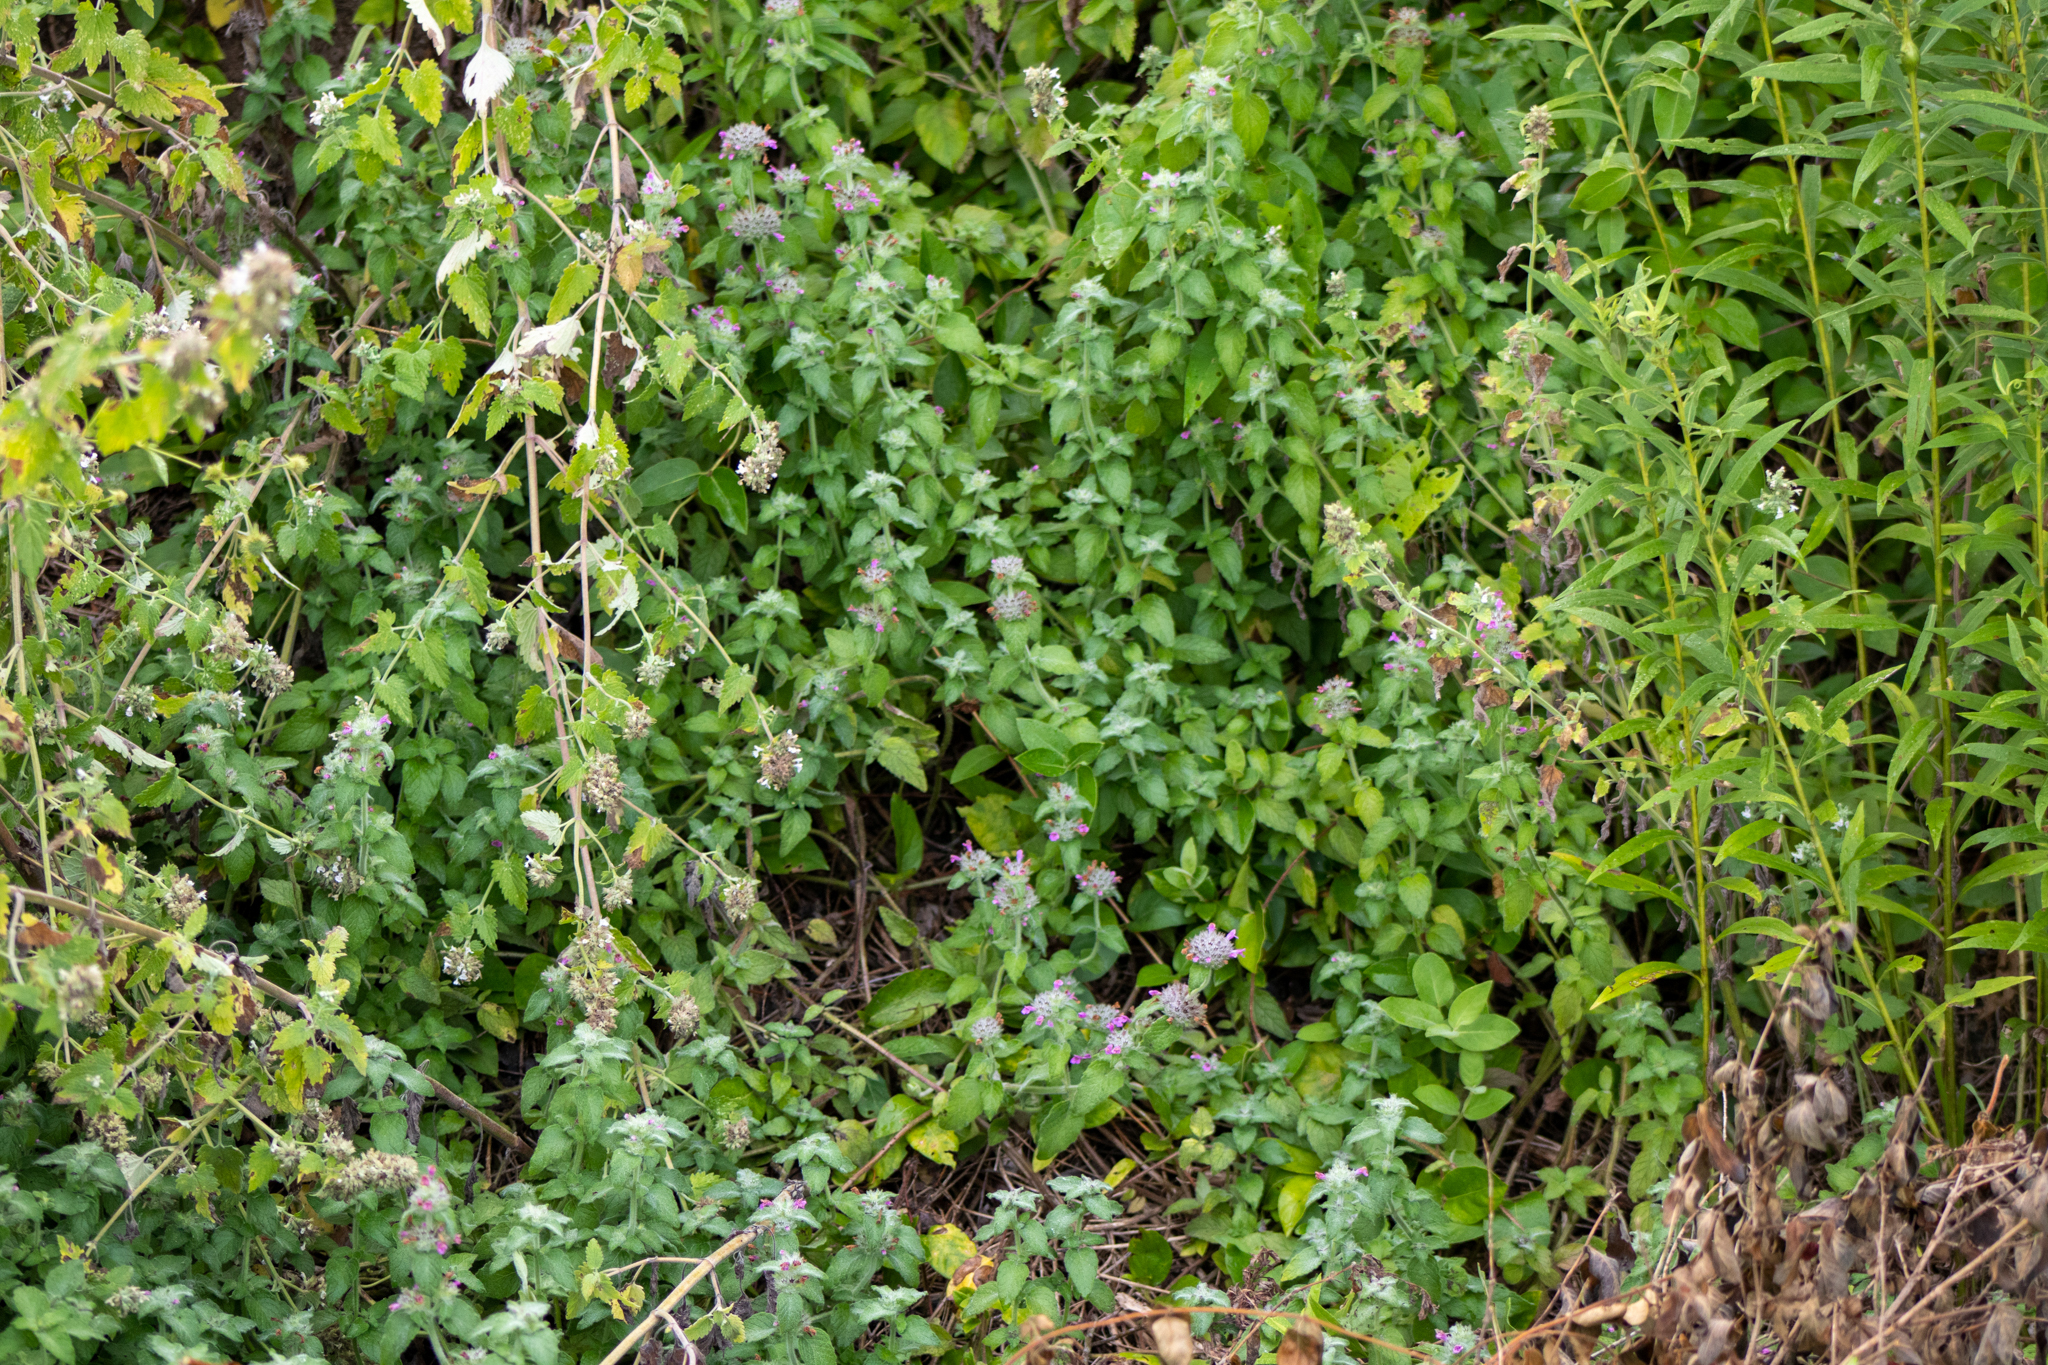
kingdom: Plantae
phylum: Tracheophyta
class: Magnoliopsida
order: Lamiales
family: Lamiaceae
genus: Clinopodium
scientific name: Clinopodium vulgare
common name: Wild basil
